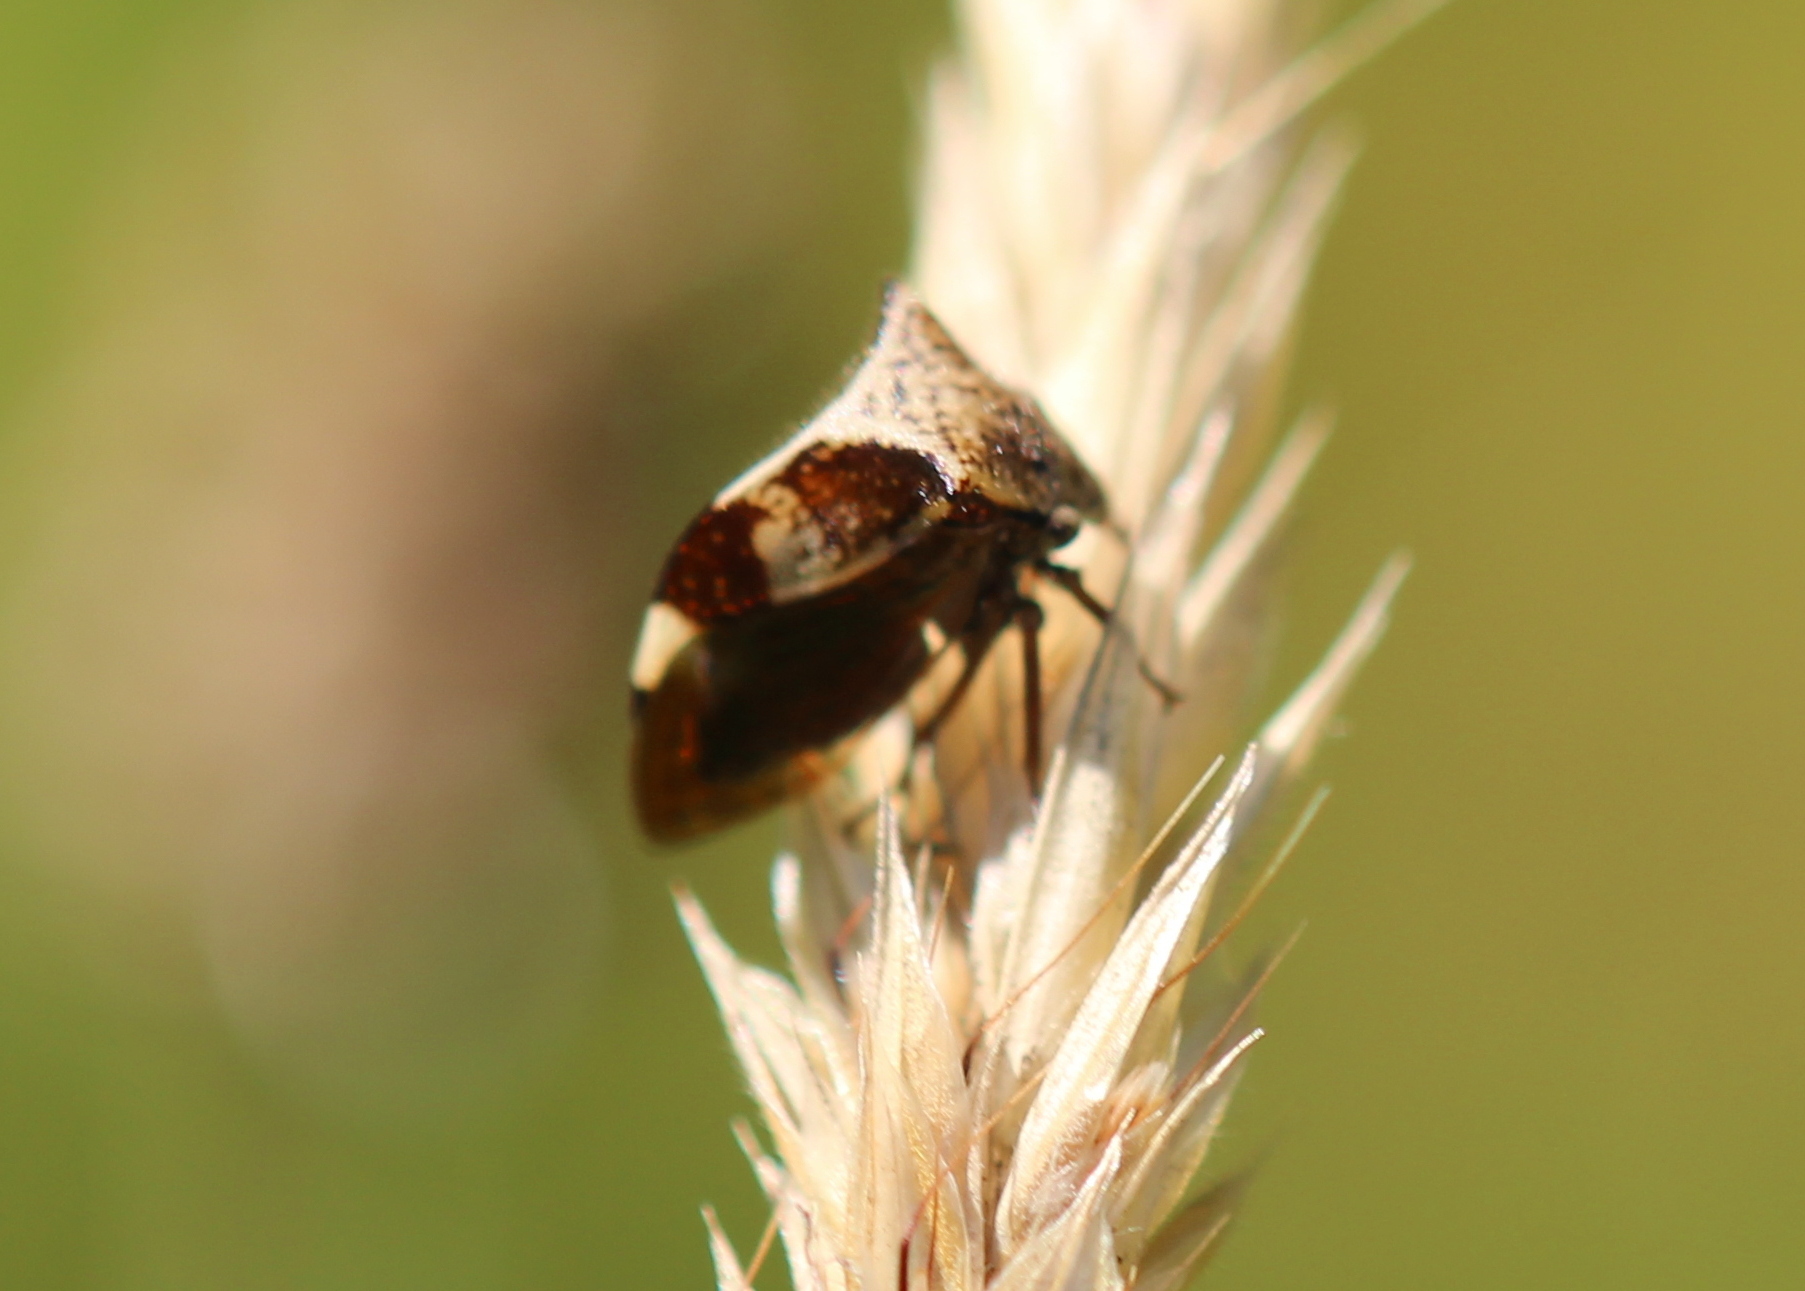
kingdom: Animalia
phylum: Arthropoda
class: Insecta
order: Hemiptera
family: Membracidae
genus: Stictocephala
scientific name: Stictocephala diceros
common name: Two-horned treehopper
